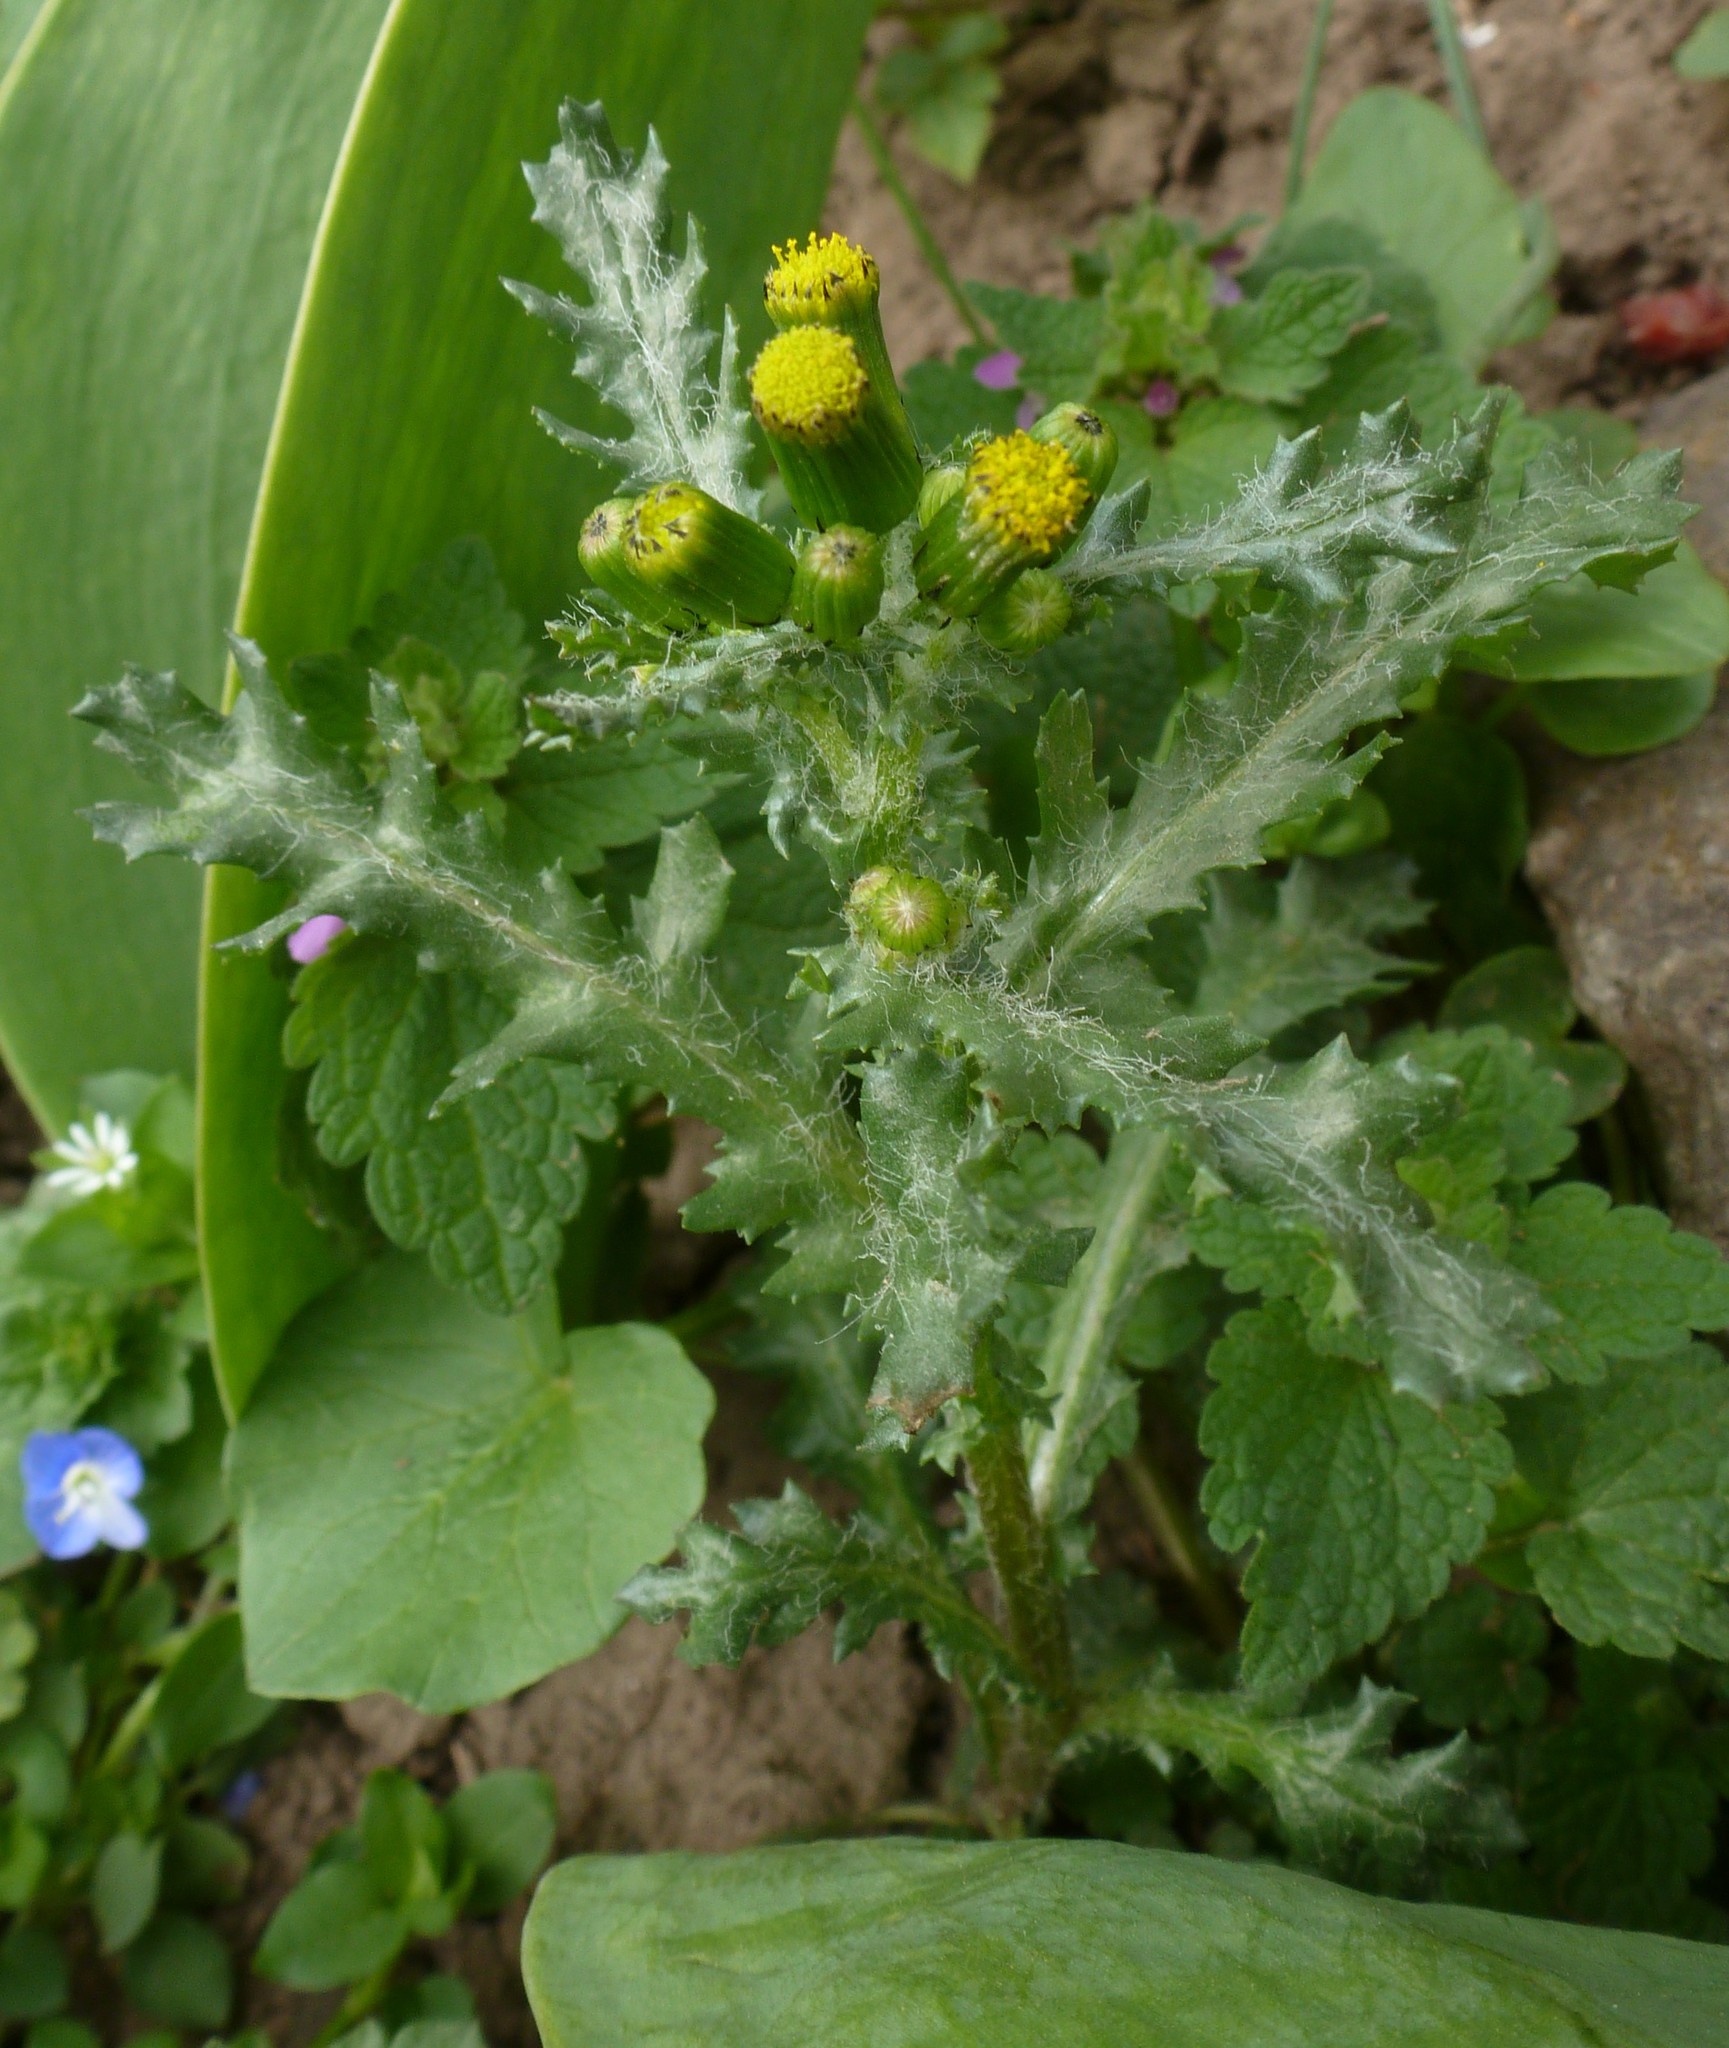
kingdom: Plantae
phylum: Tracheophyta
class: Magnoliopsida
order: Asterales
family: Asteraceae
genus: Senecio
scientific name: Senecio vulgaris
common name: Old-man-in-the-spring
